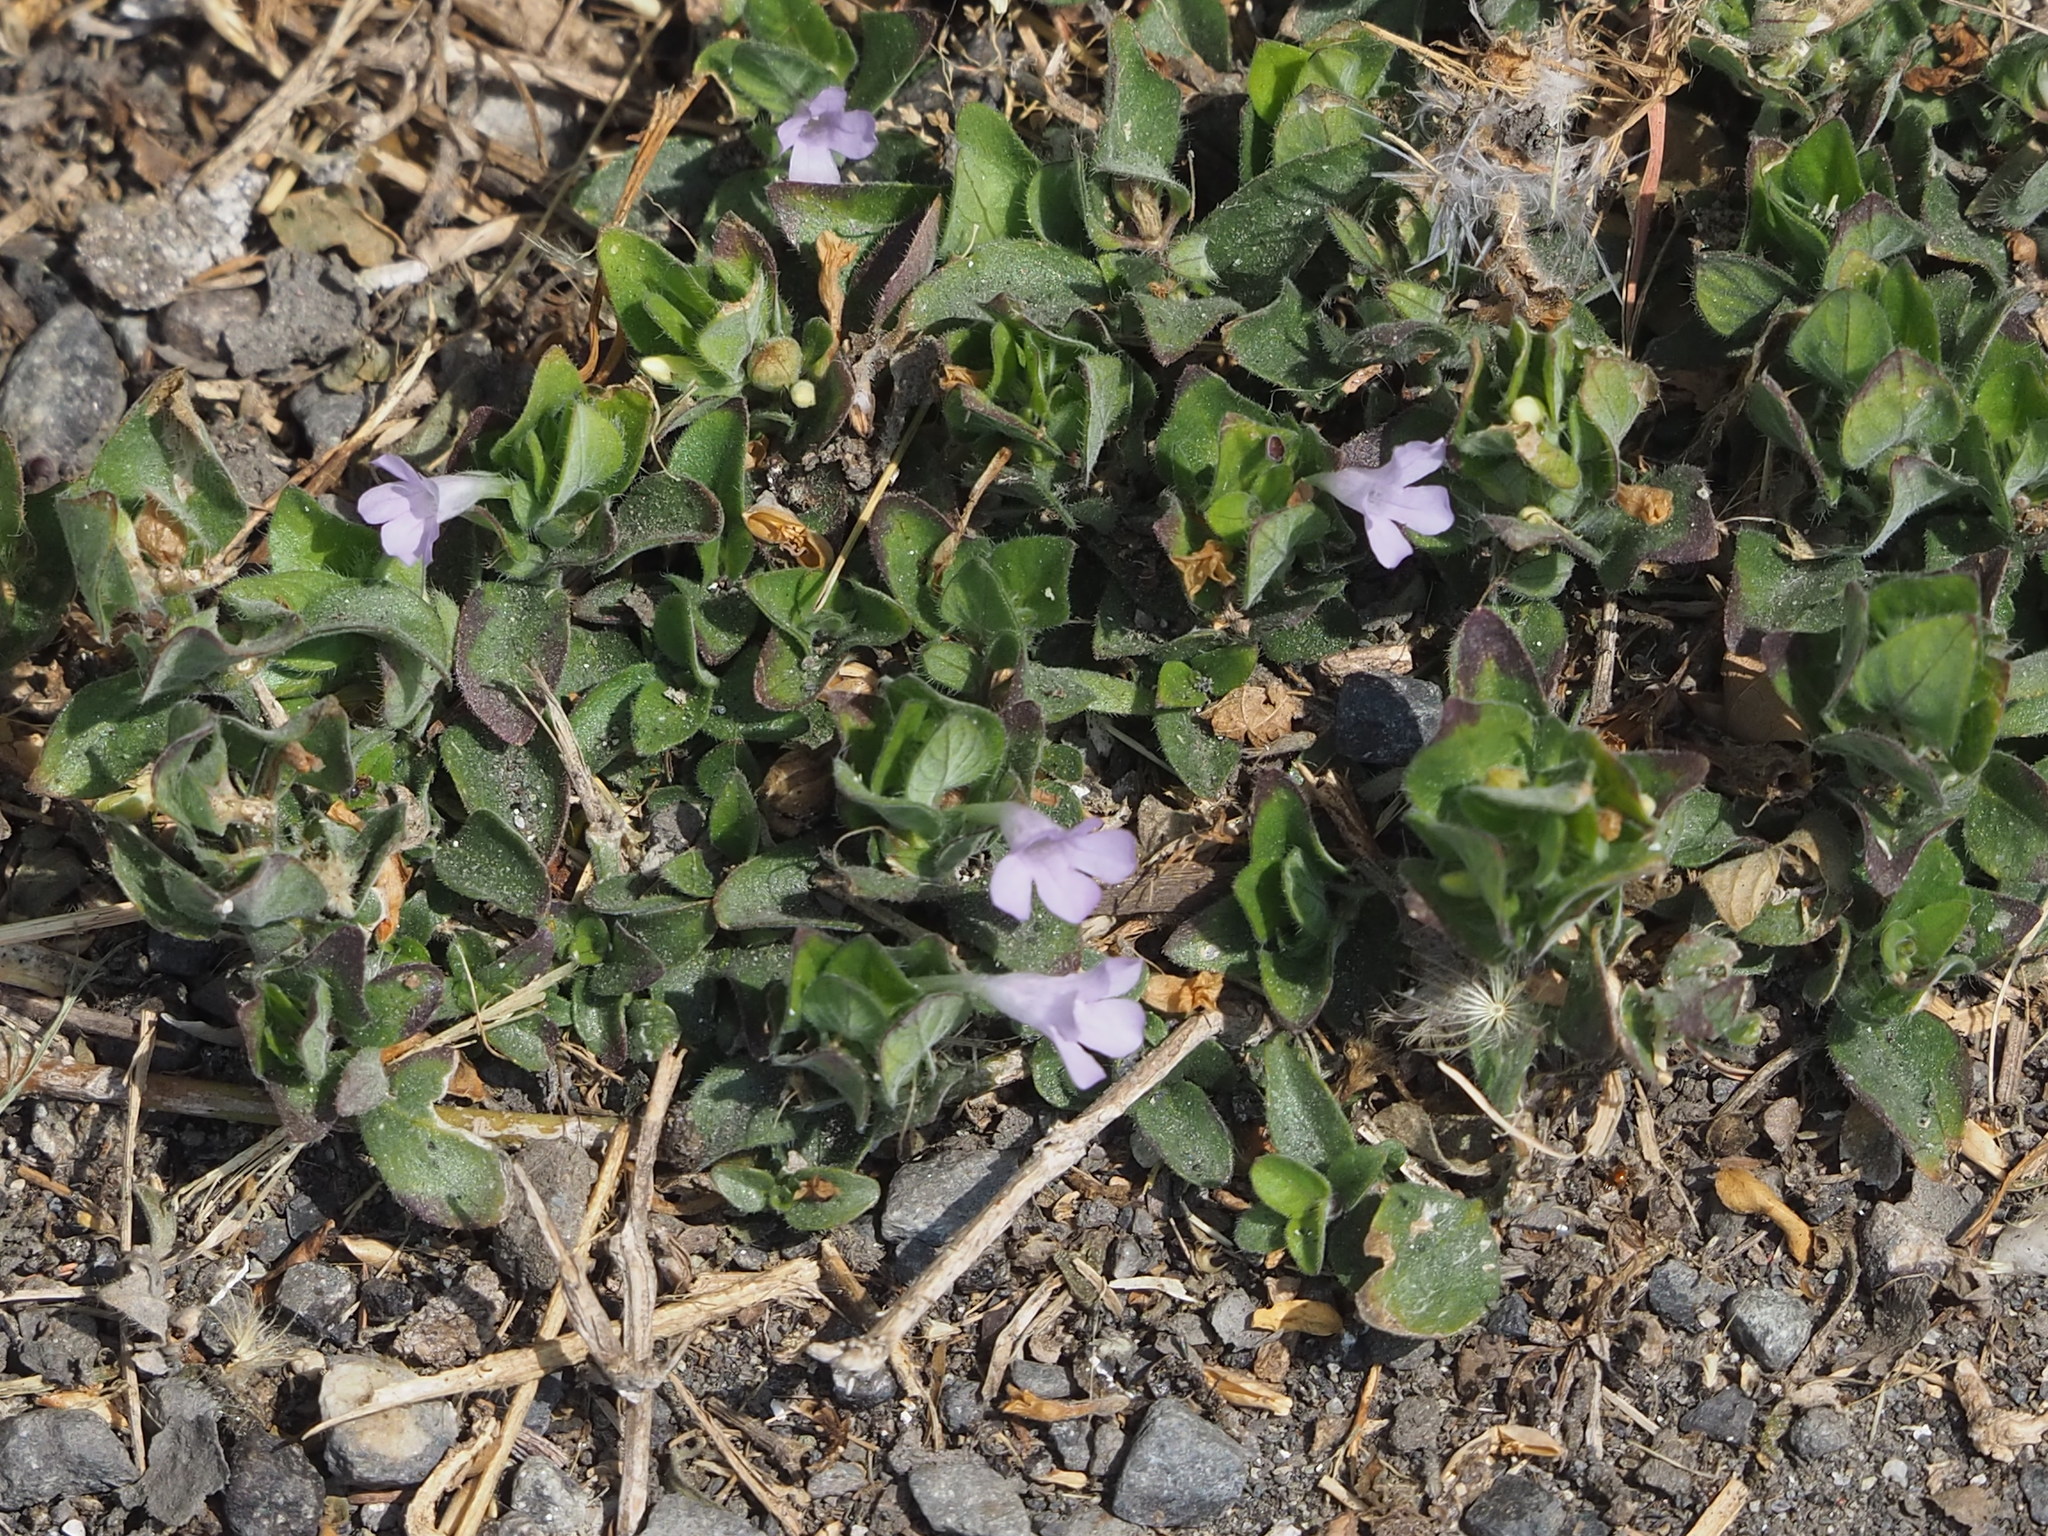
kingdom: Plantae
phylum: Tracheophyta
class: Magnoliopsida
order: Lamiales
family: Acanthaceae
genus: Ruellia
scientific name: Ruellia blechum
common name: Browne's blechum
